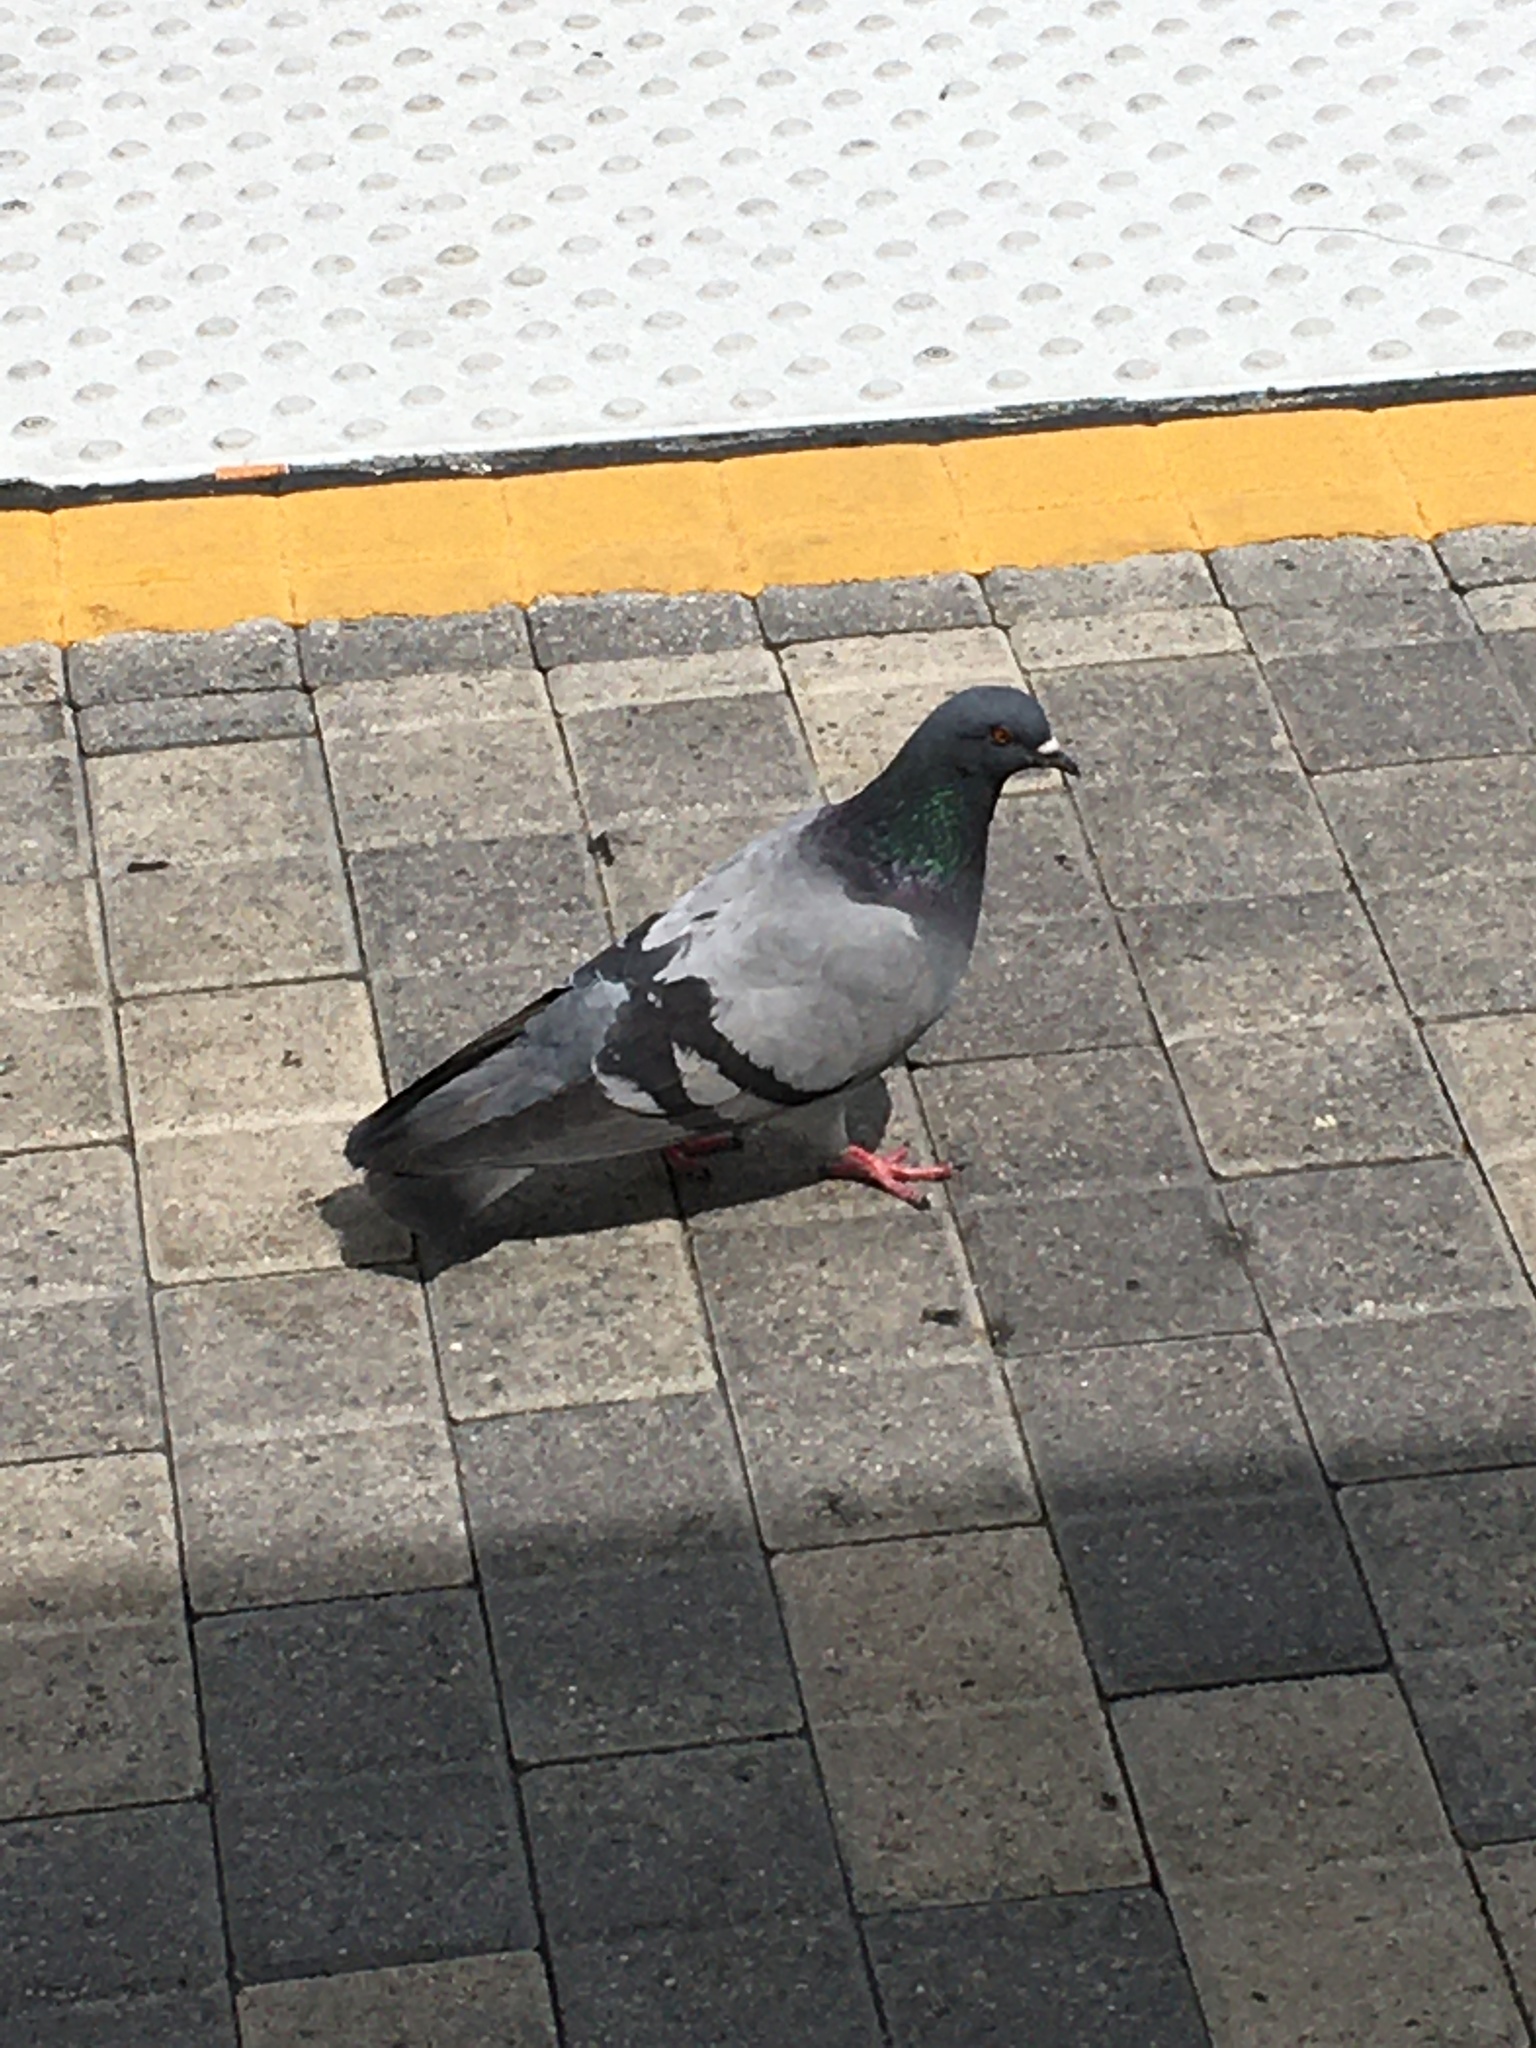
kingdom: Animalia
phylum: Chordata
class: Aves
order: Columbiformes
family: Columbidae
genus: Columba
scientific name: Columba livia
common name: Rock pigeon
